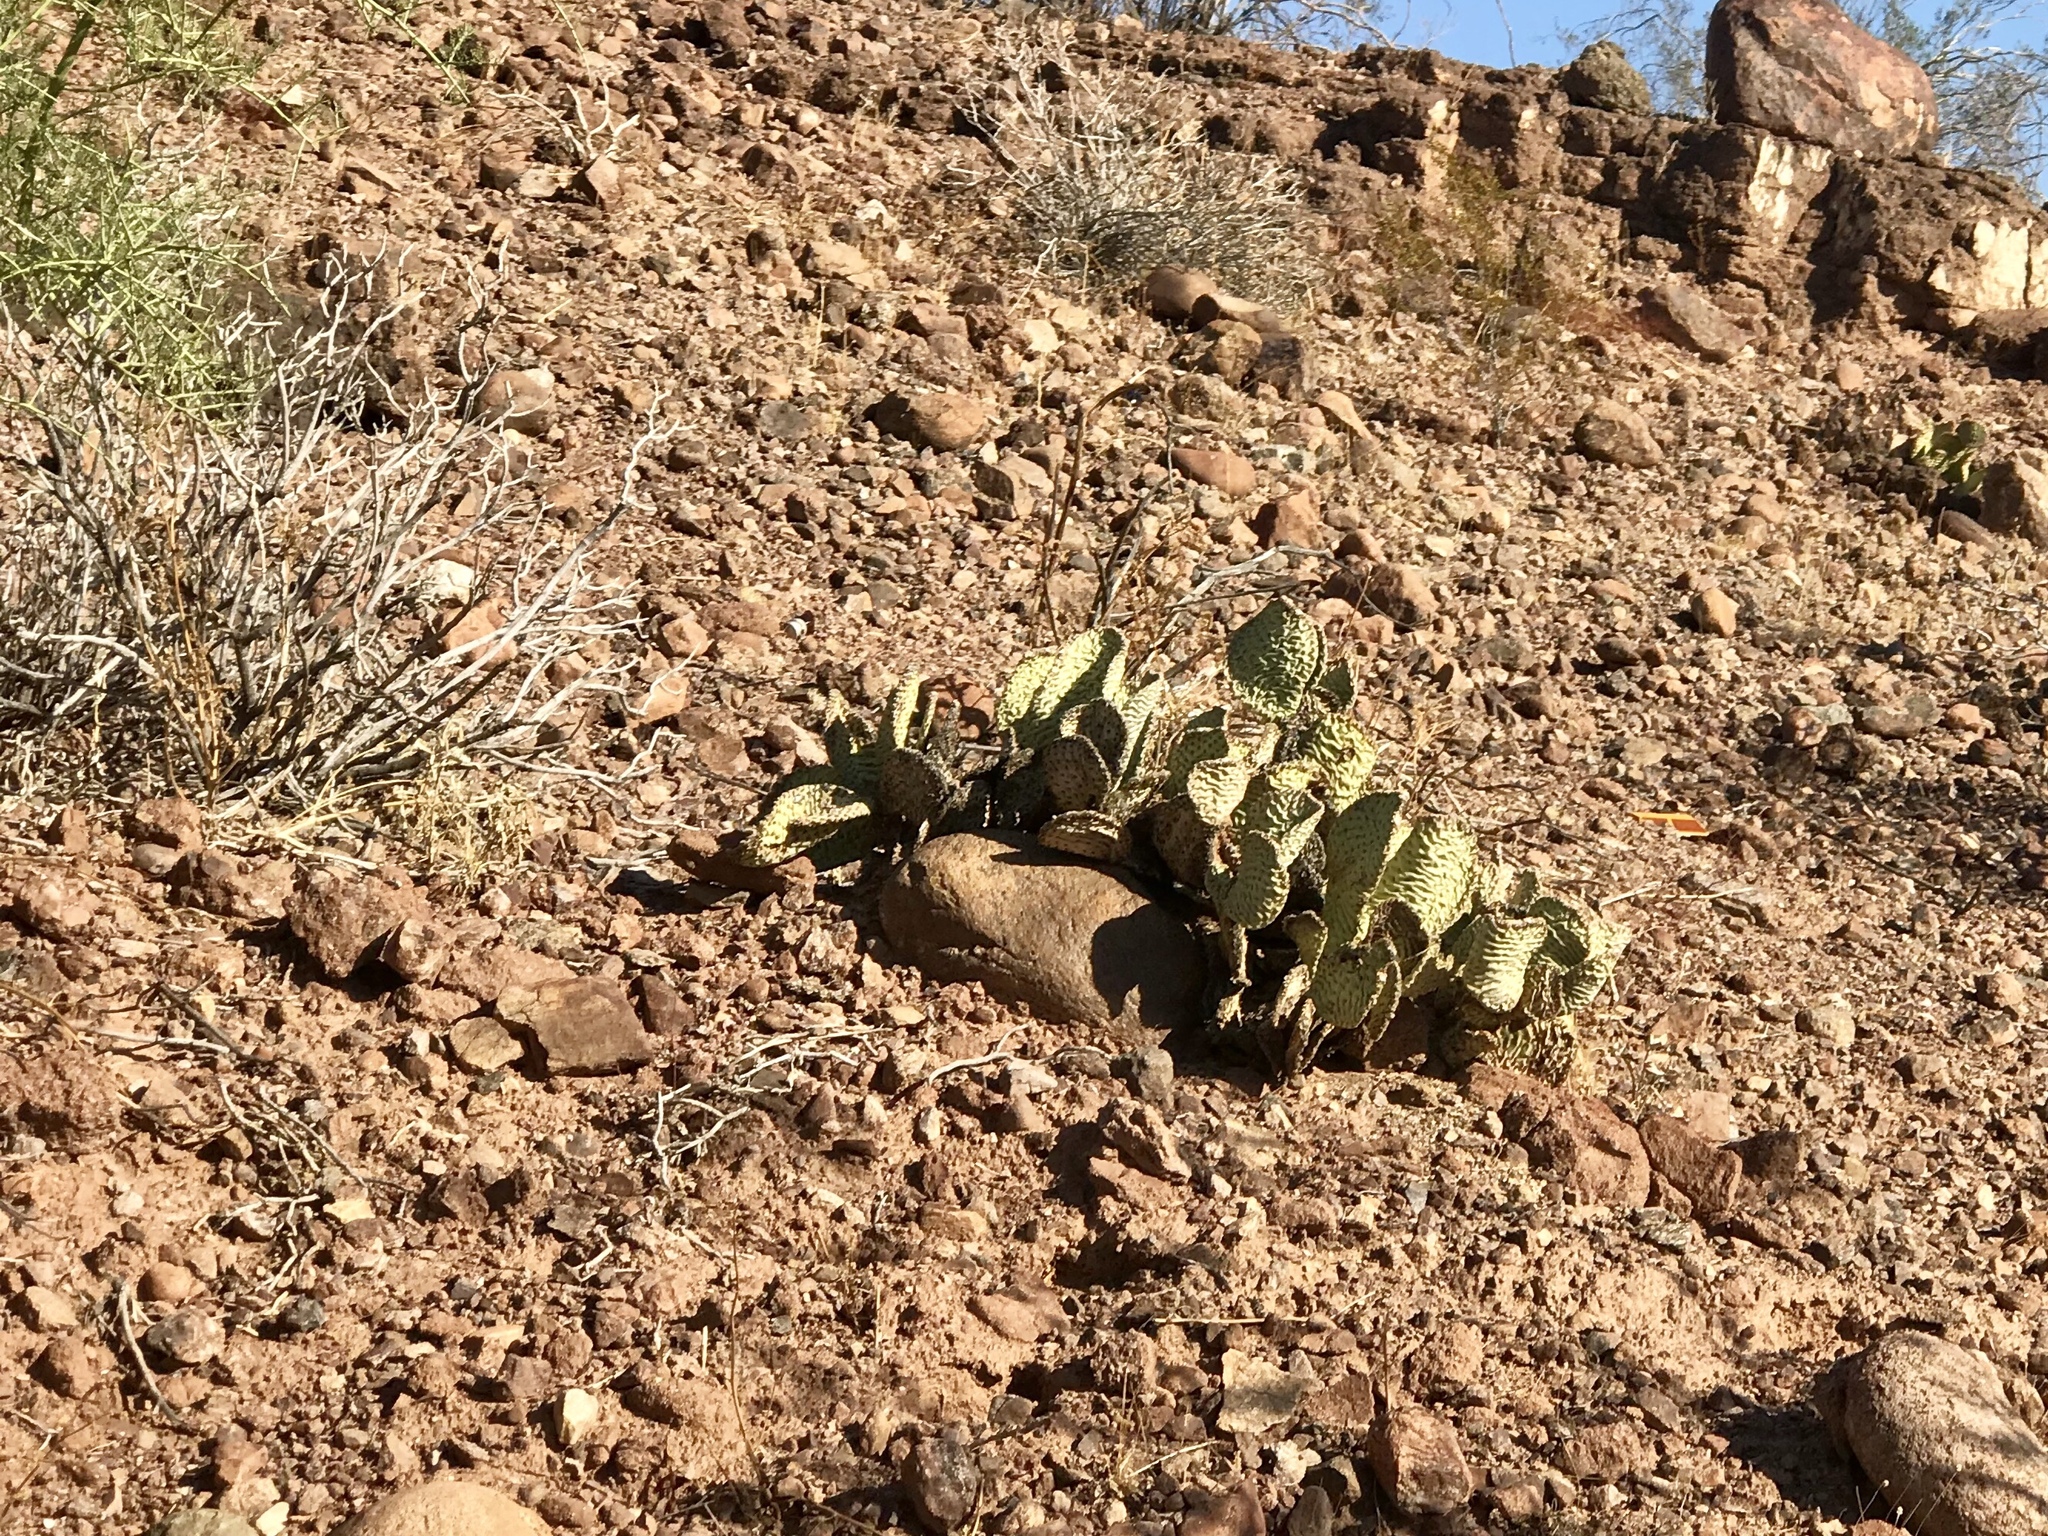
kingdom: Plantae
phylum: Tracheophyta
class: Magnoliopsida
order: Caryophyllales
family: Cactaceae
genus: Opuntia
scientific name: Opuntia basilaris
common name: Beavertail prickly-pear
